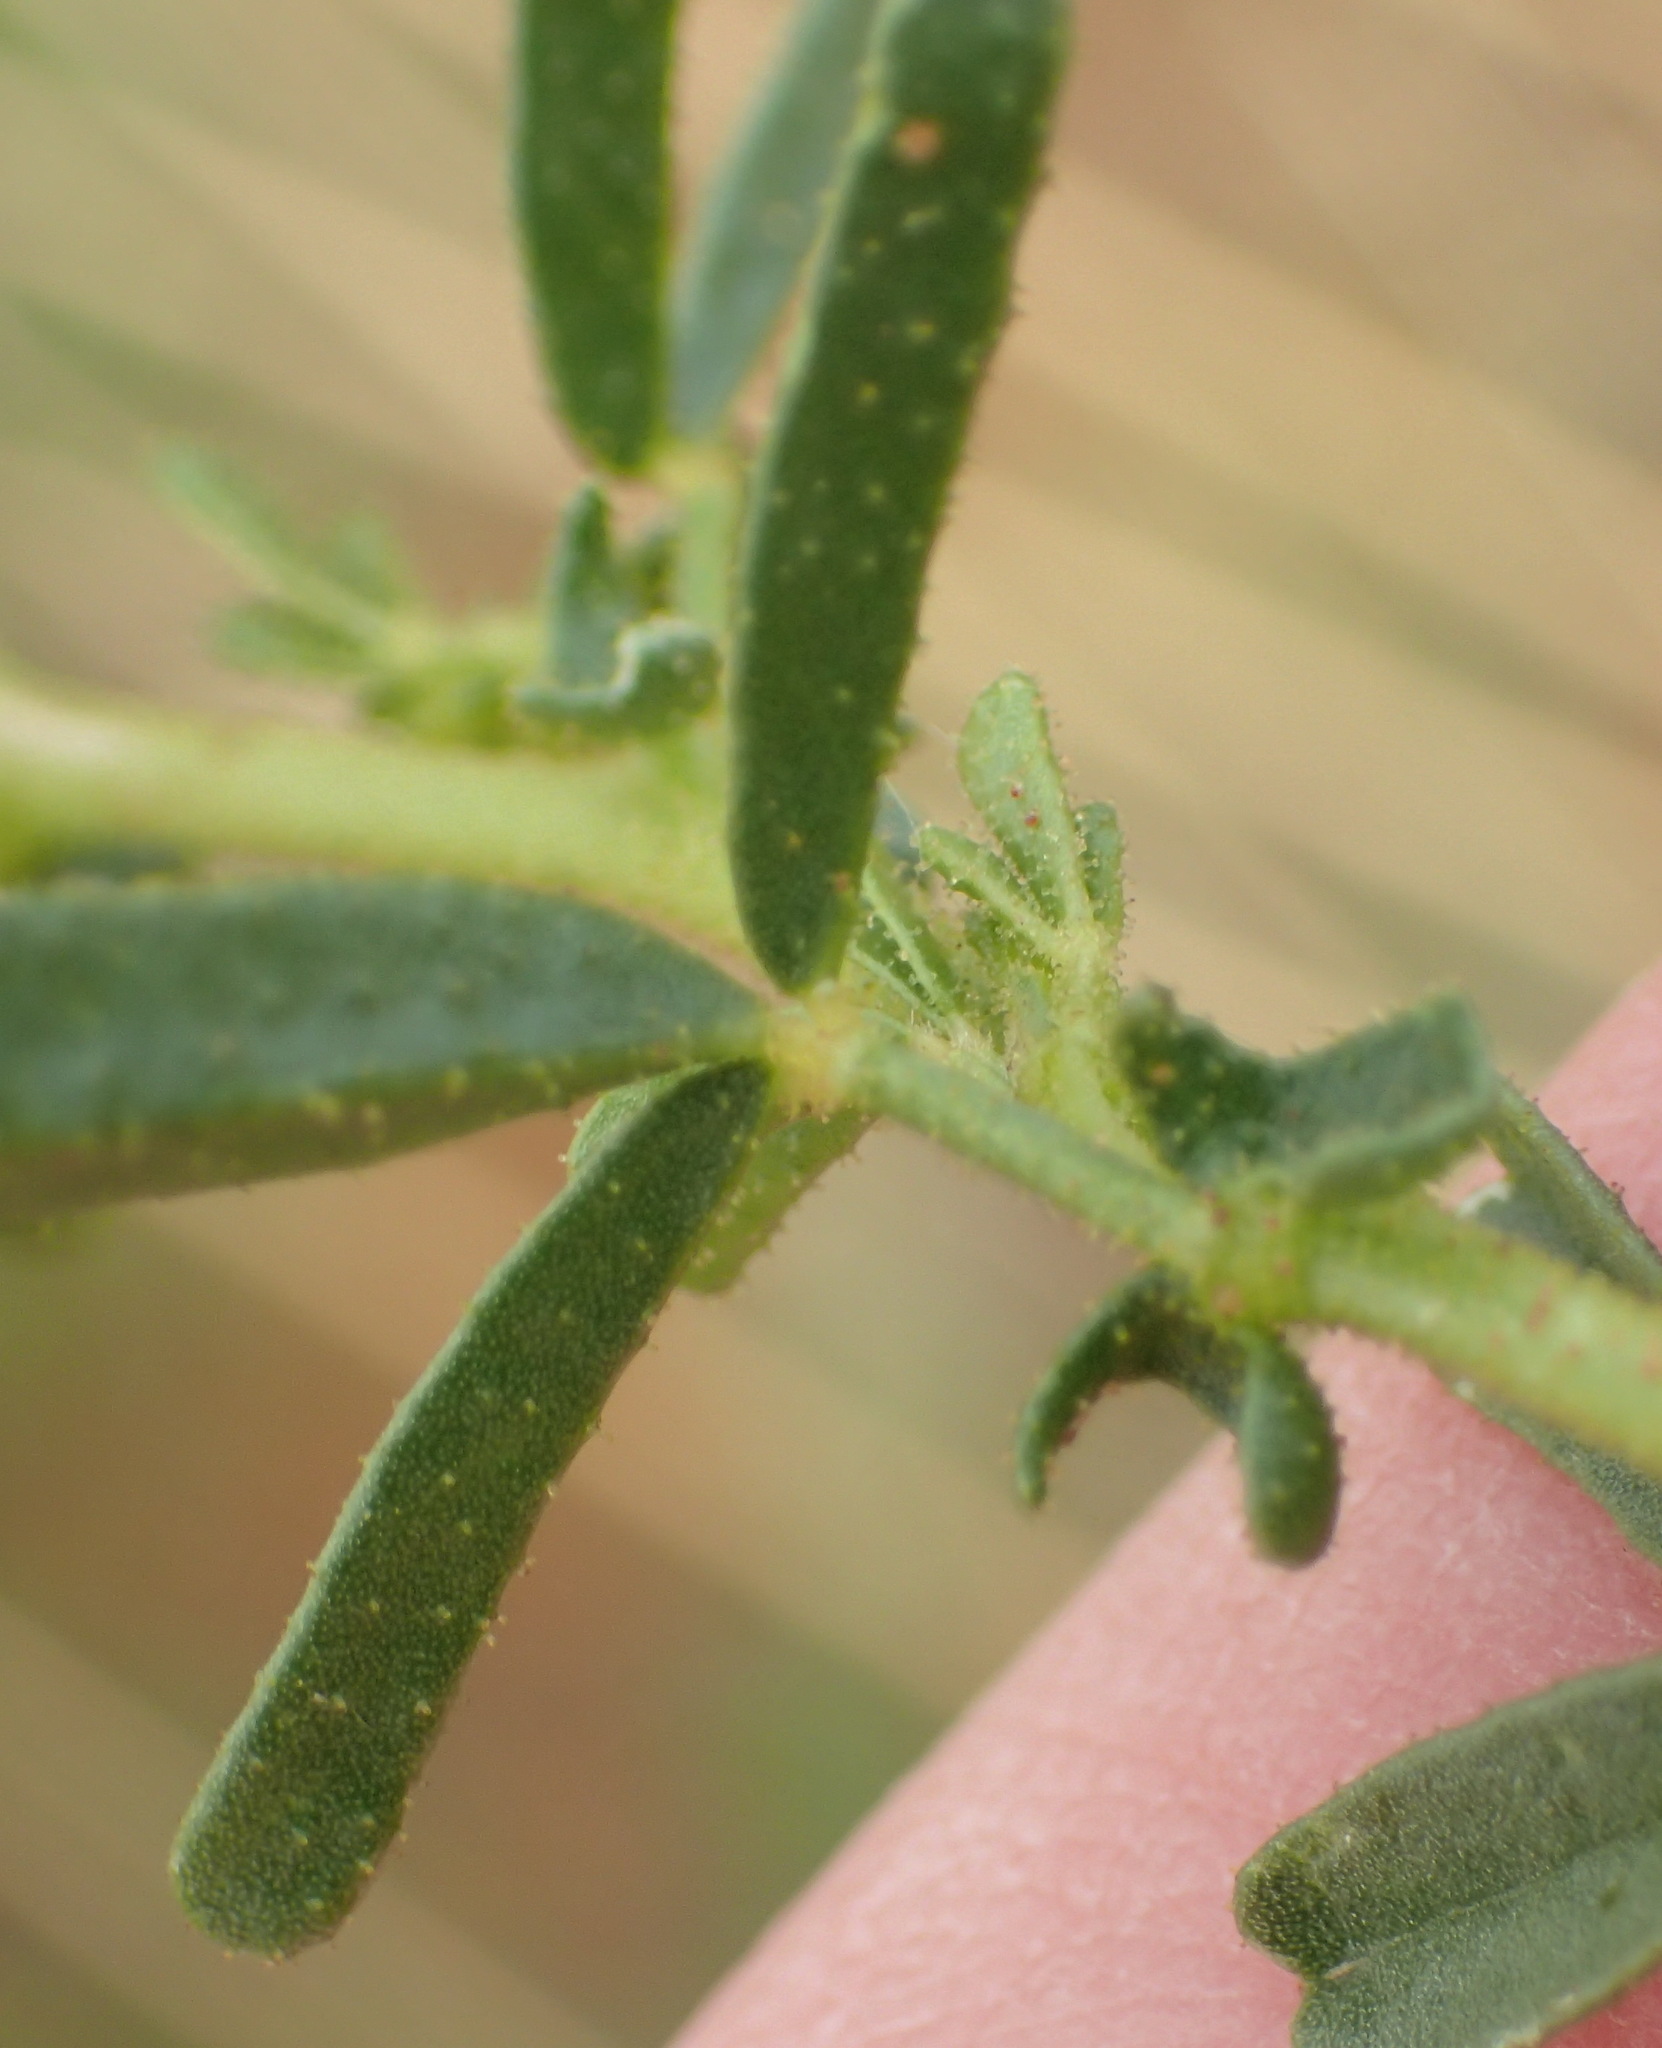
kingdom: Plantae
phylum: Tracheophyta
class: Magnoliopsida
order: Fabales
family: Fabaceae
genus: Medicago
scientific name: Medicago laciniata
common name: Tattered medick
